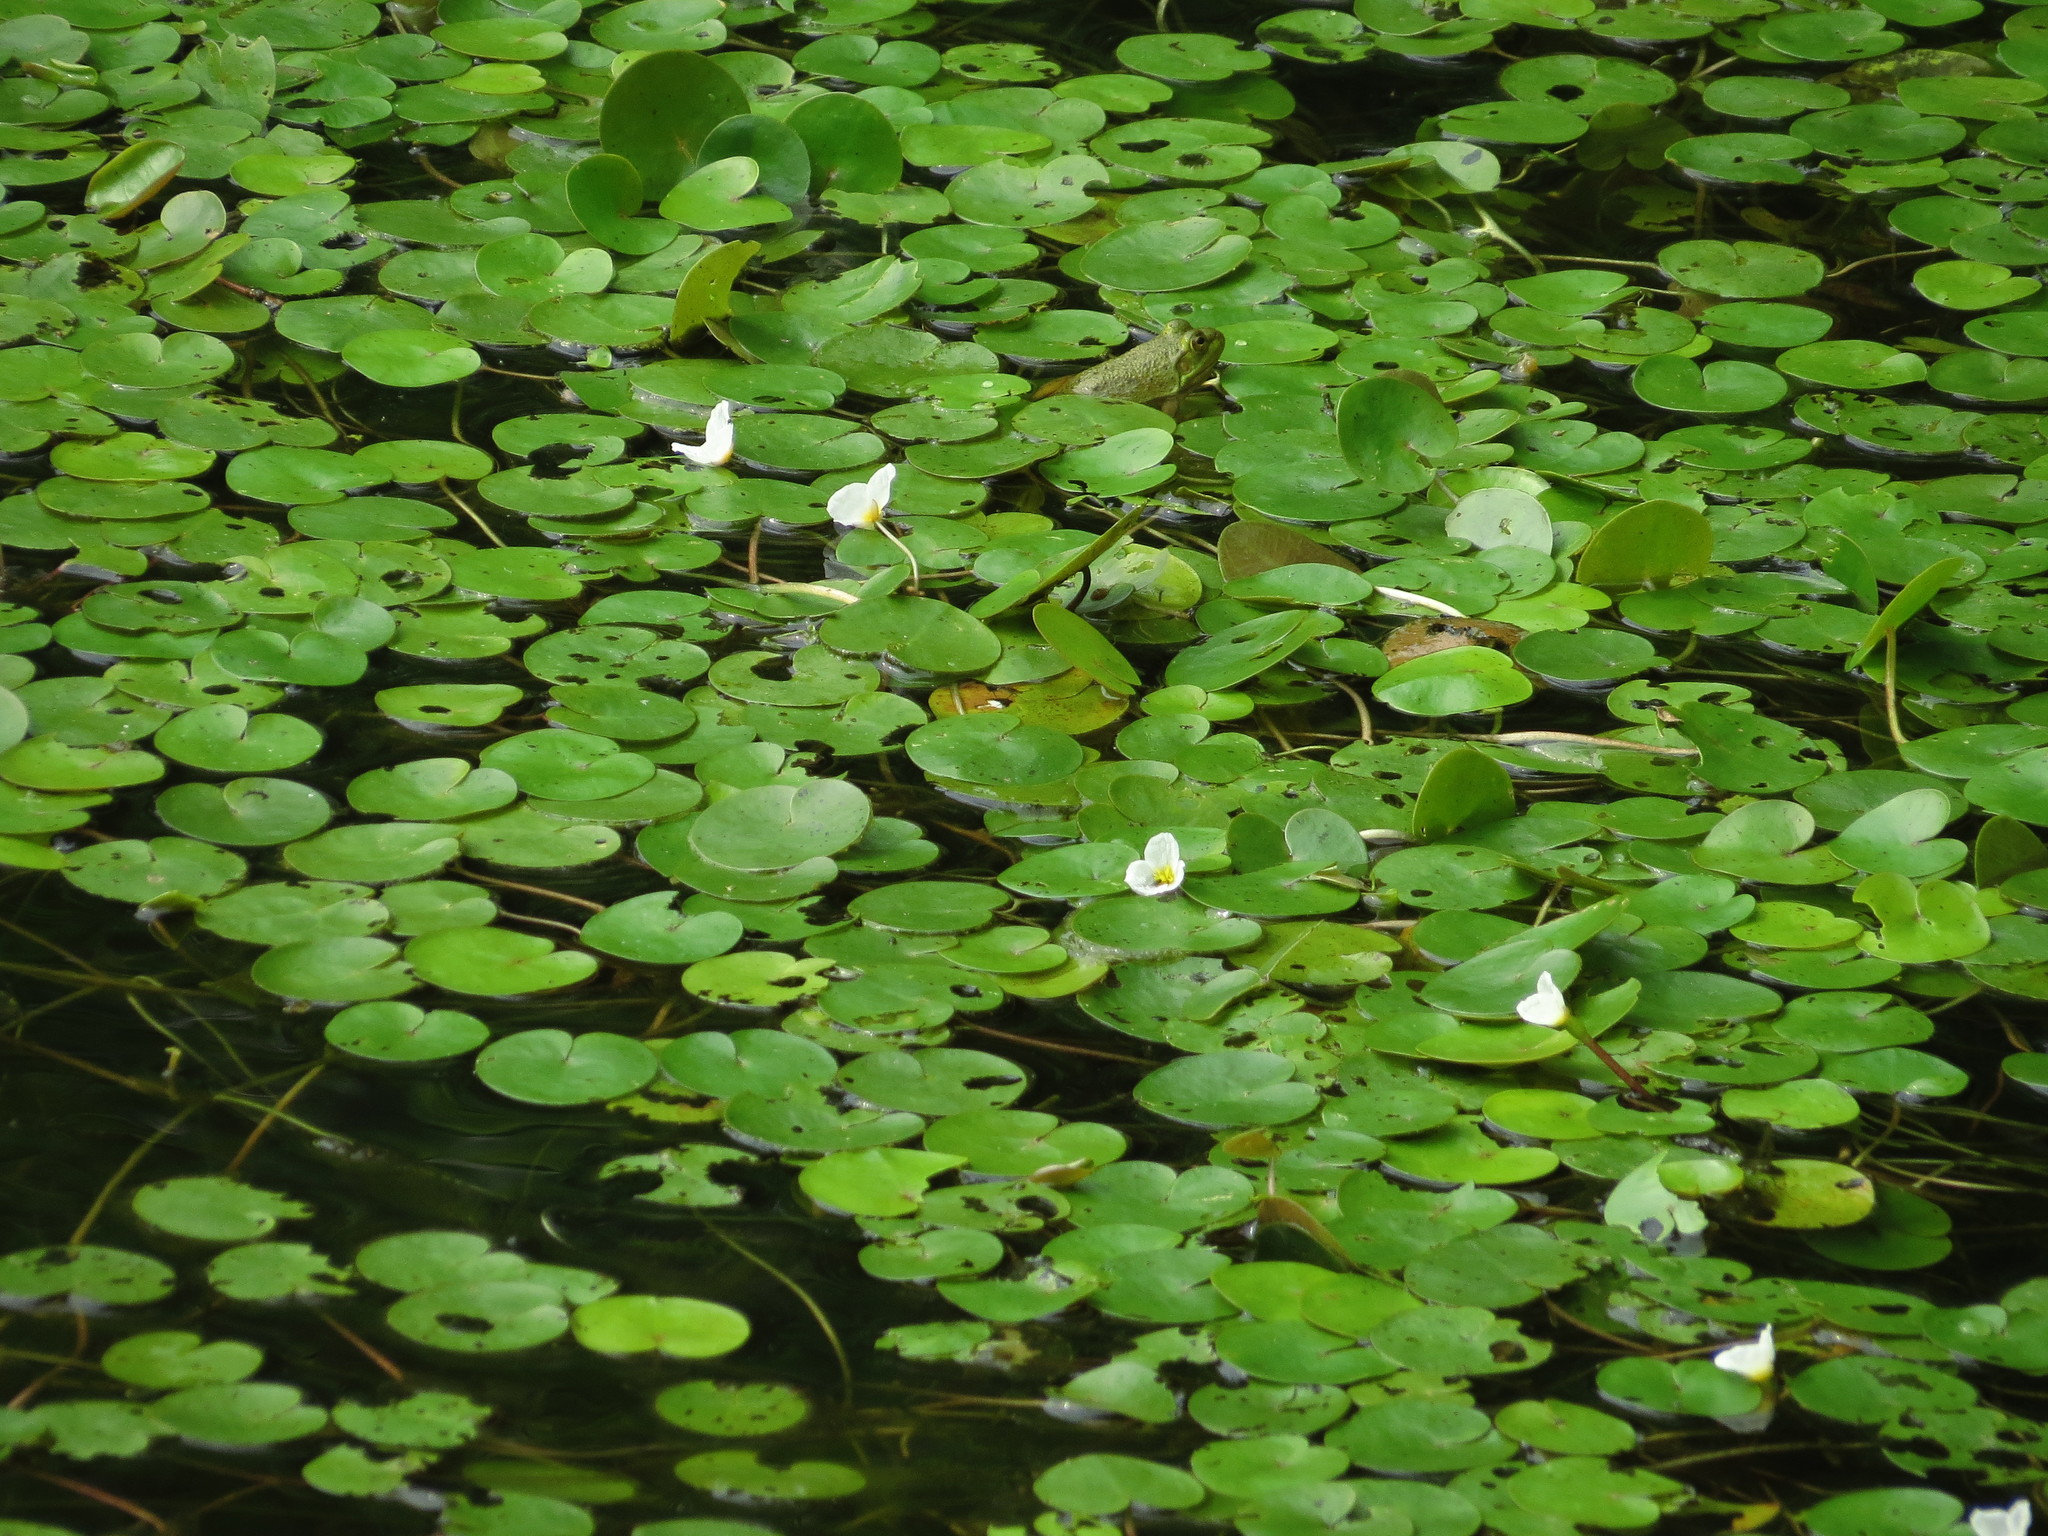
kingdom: Plantae
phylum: Tracheophyta
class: Liliopsida
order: Alismatales
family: Hydrocharitaceae
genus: Hydrocharis
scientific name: Hydrocharis morsus-ranae
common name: Frogbit
